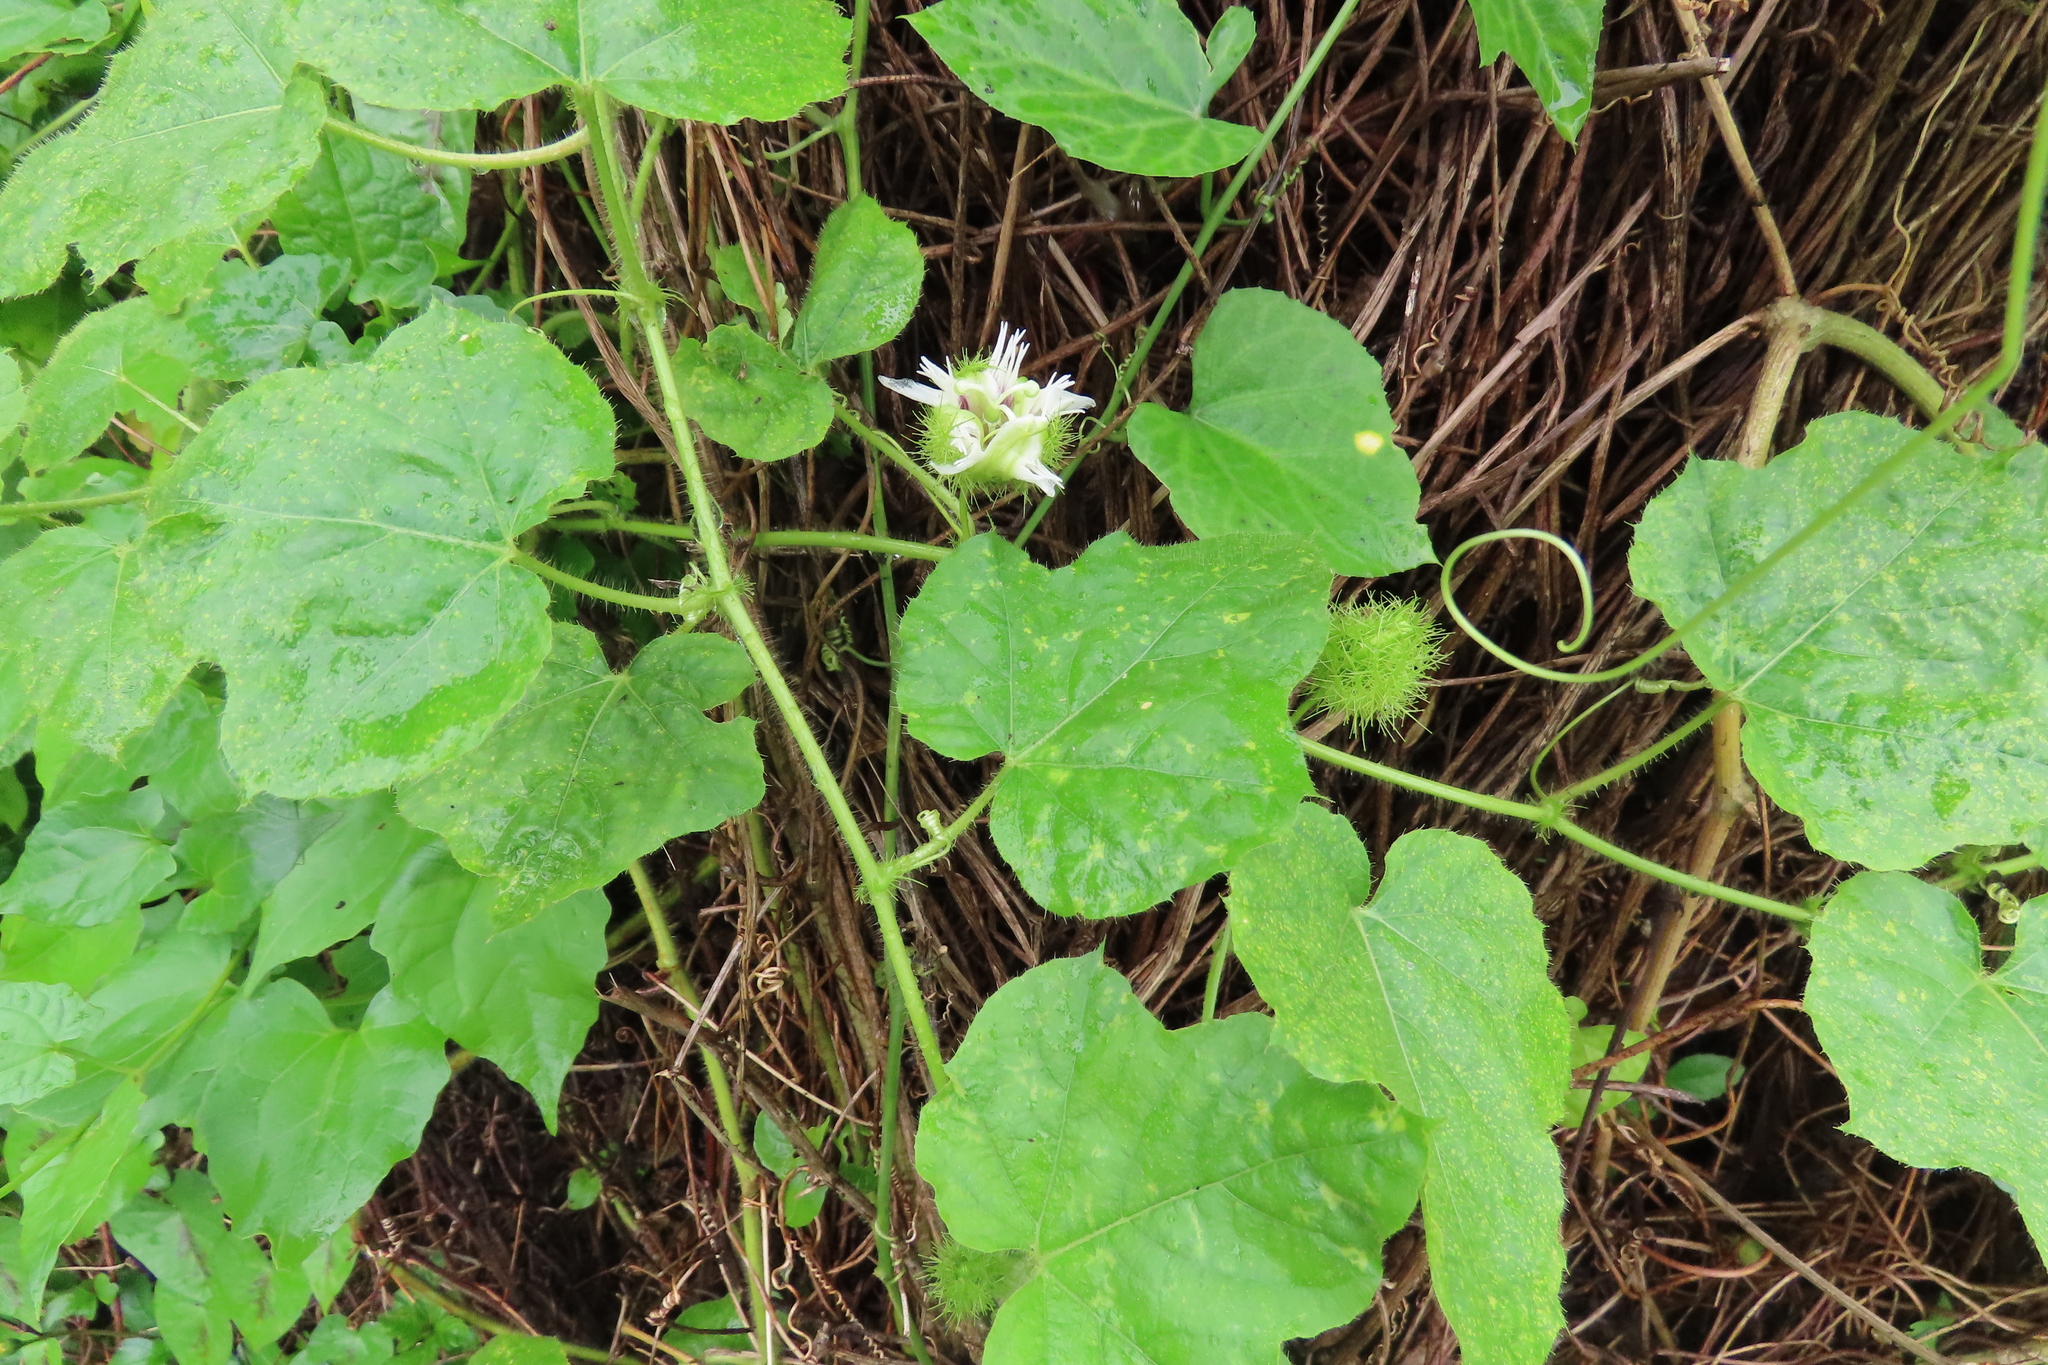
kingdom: Plantae
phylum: Tracheophyta
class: Magnoliopsida
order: Malpighiales
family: Passifloraceae
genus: Passiflora
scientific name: Passiflora foetida
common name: Fetid passionflower
